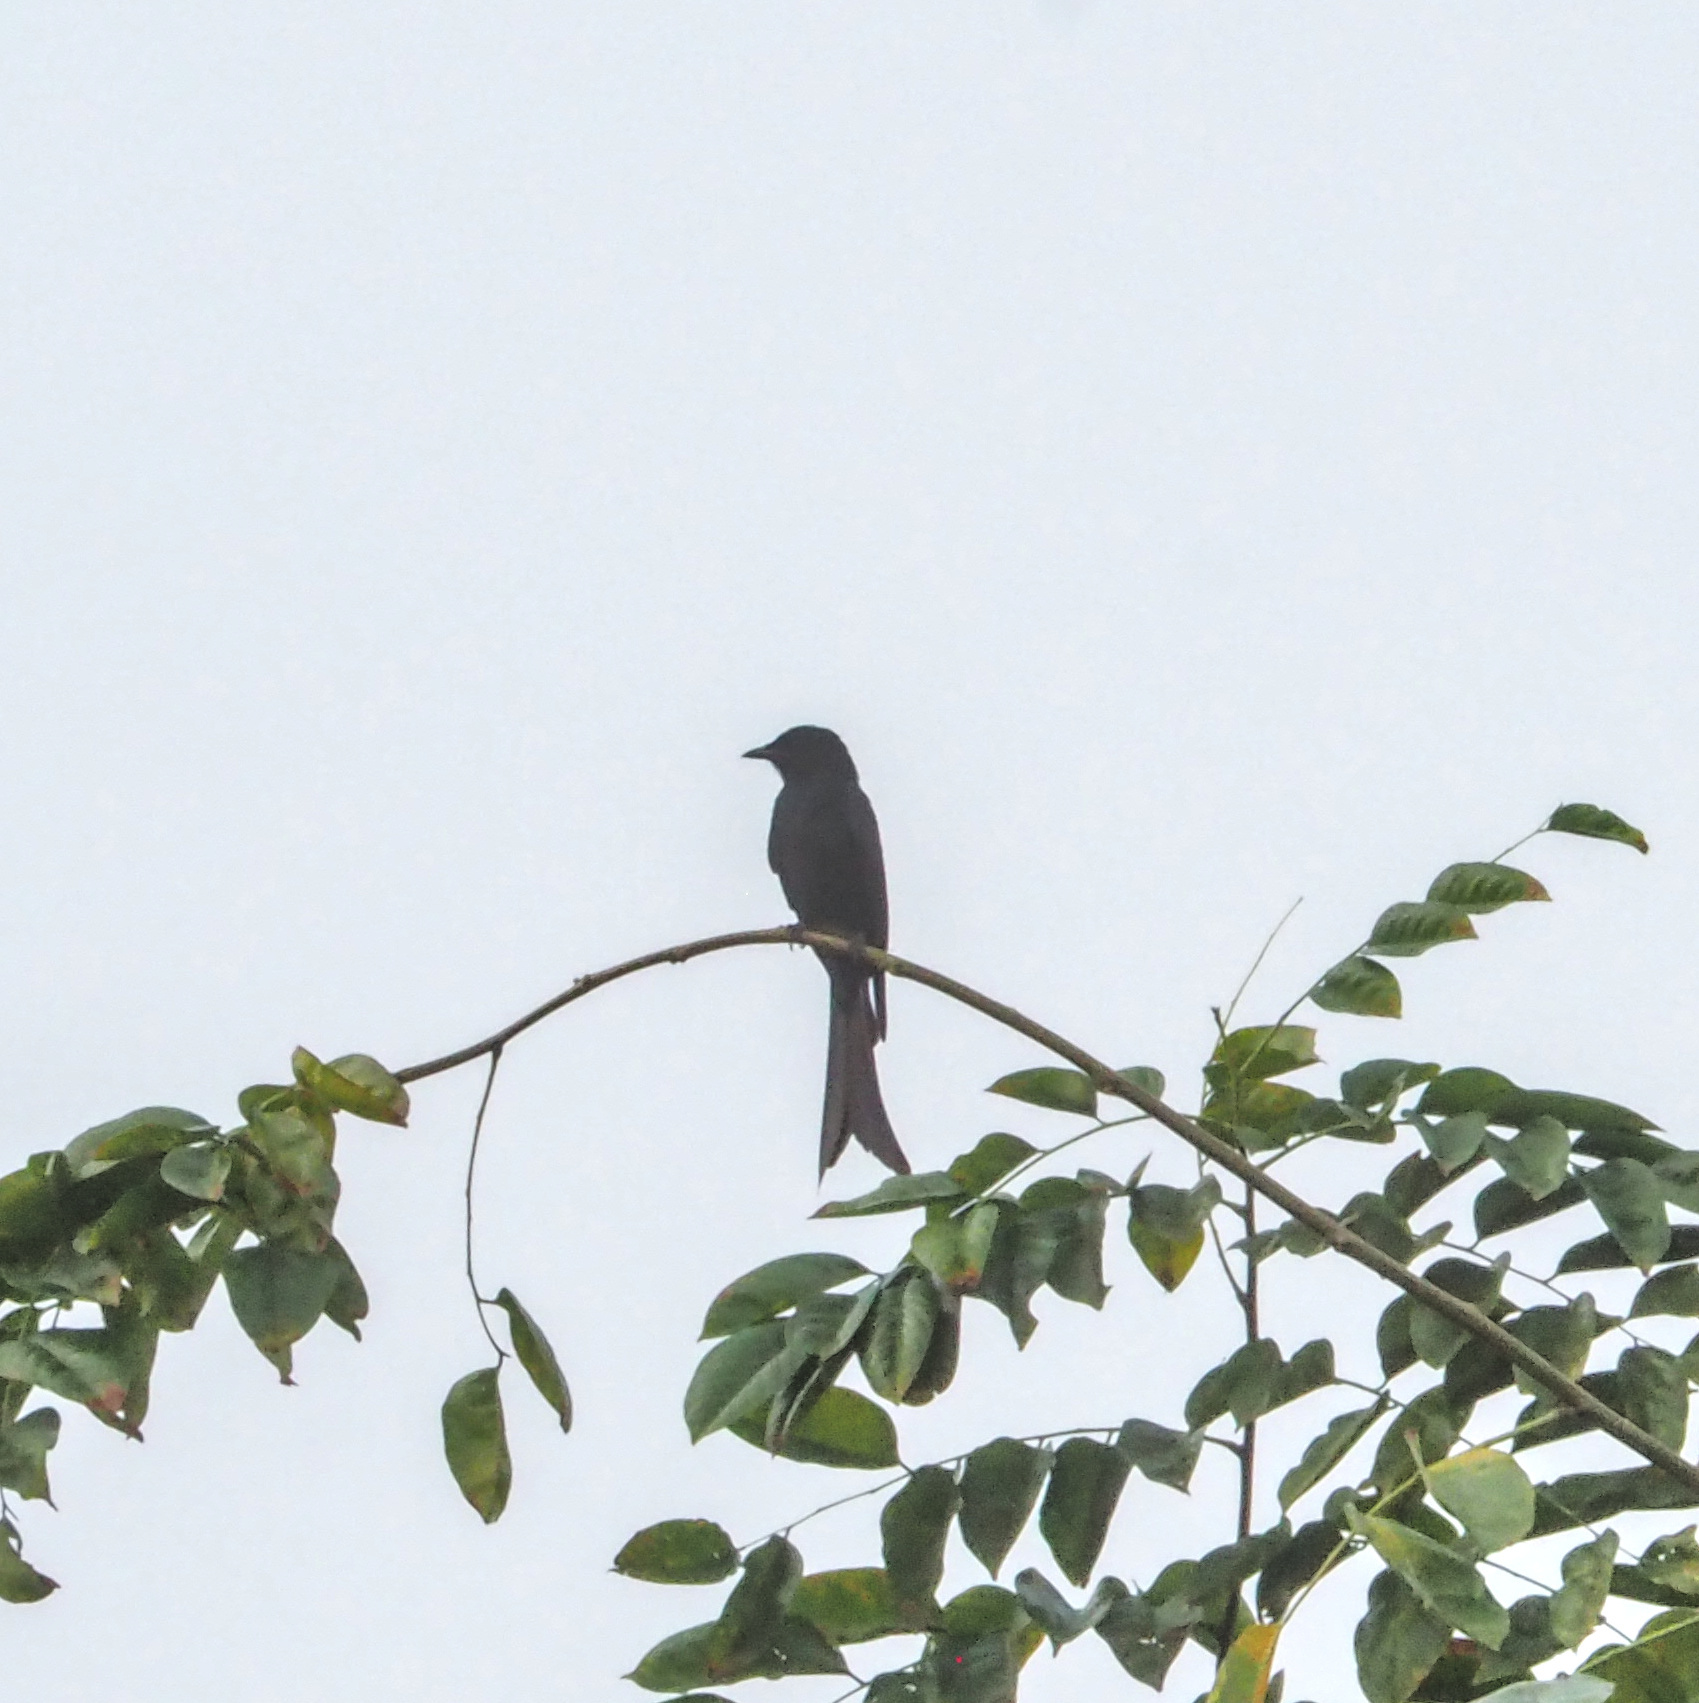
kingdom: Animalia
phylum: Chordata
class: Aves
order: Passeriformes
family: Dicruridae
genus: Dicrurus
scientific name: Dicrurus macrocercus
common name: Black drongo
